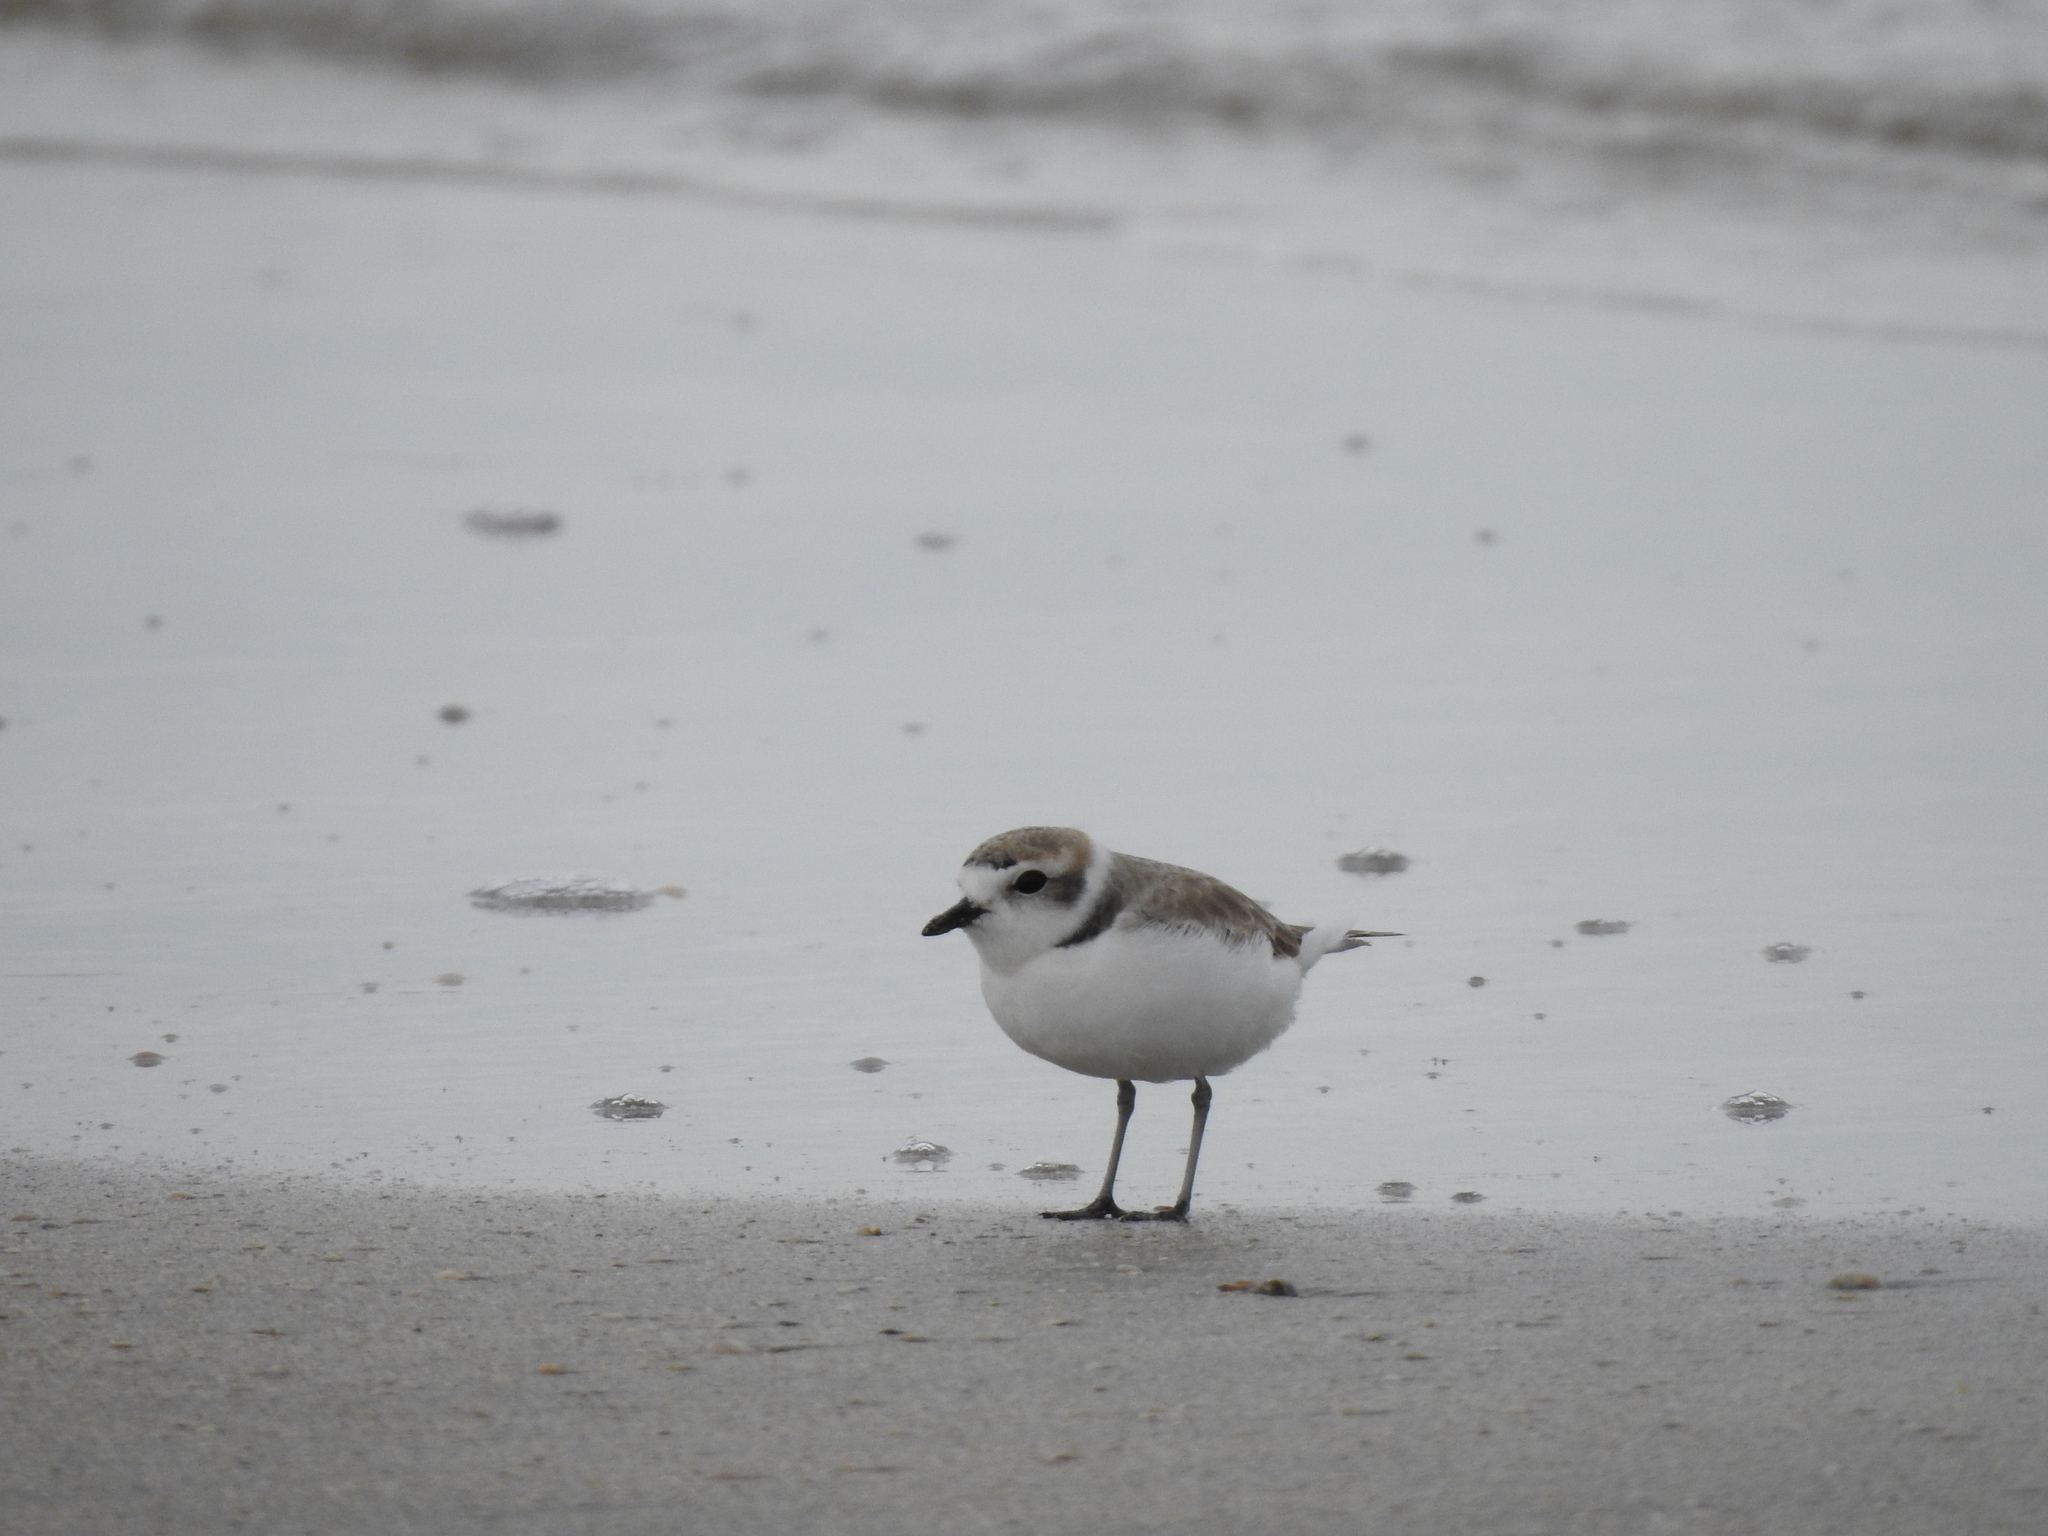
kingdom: Animalia
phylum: Chordata
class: Aves
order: Charadriiformes
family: Charadriidae
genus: Anarhynchus
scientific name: Anarhynchus
